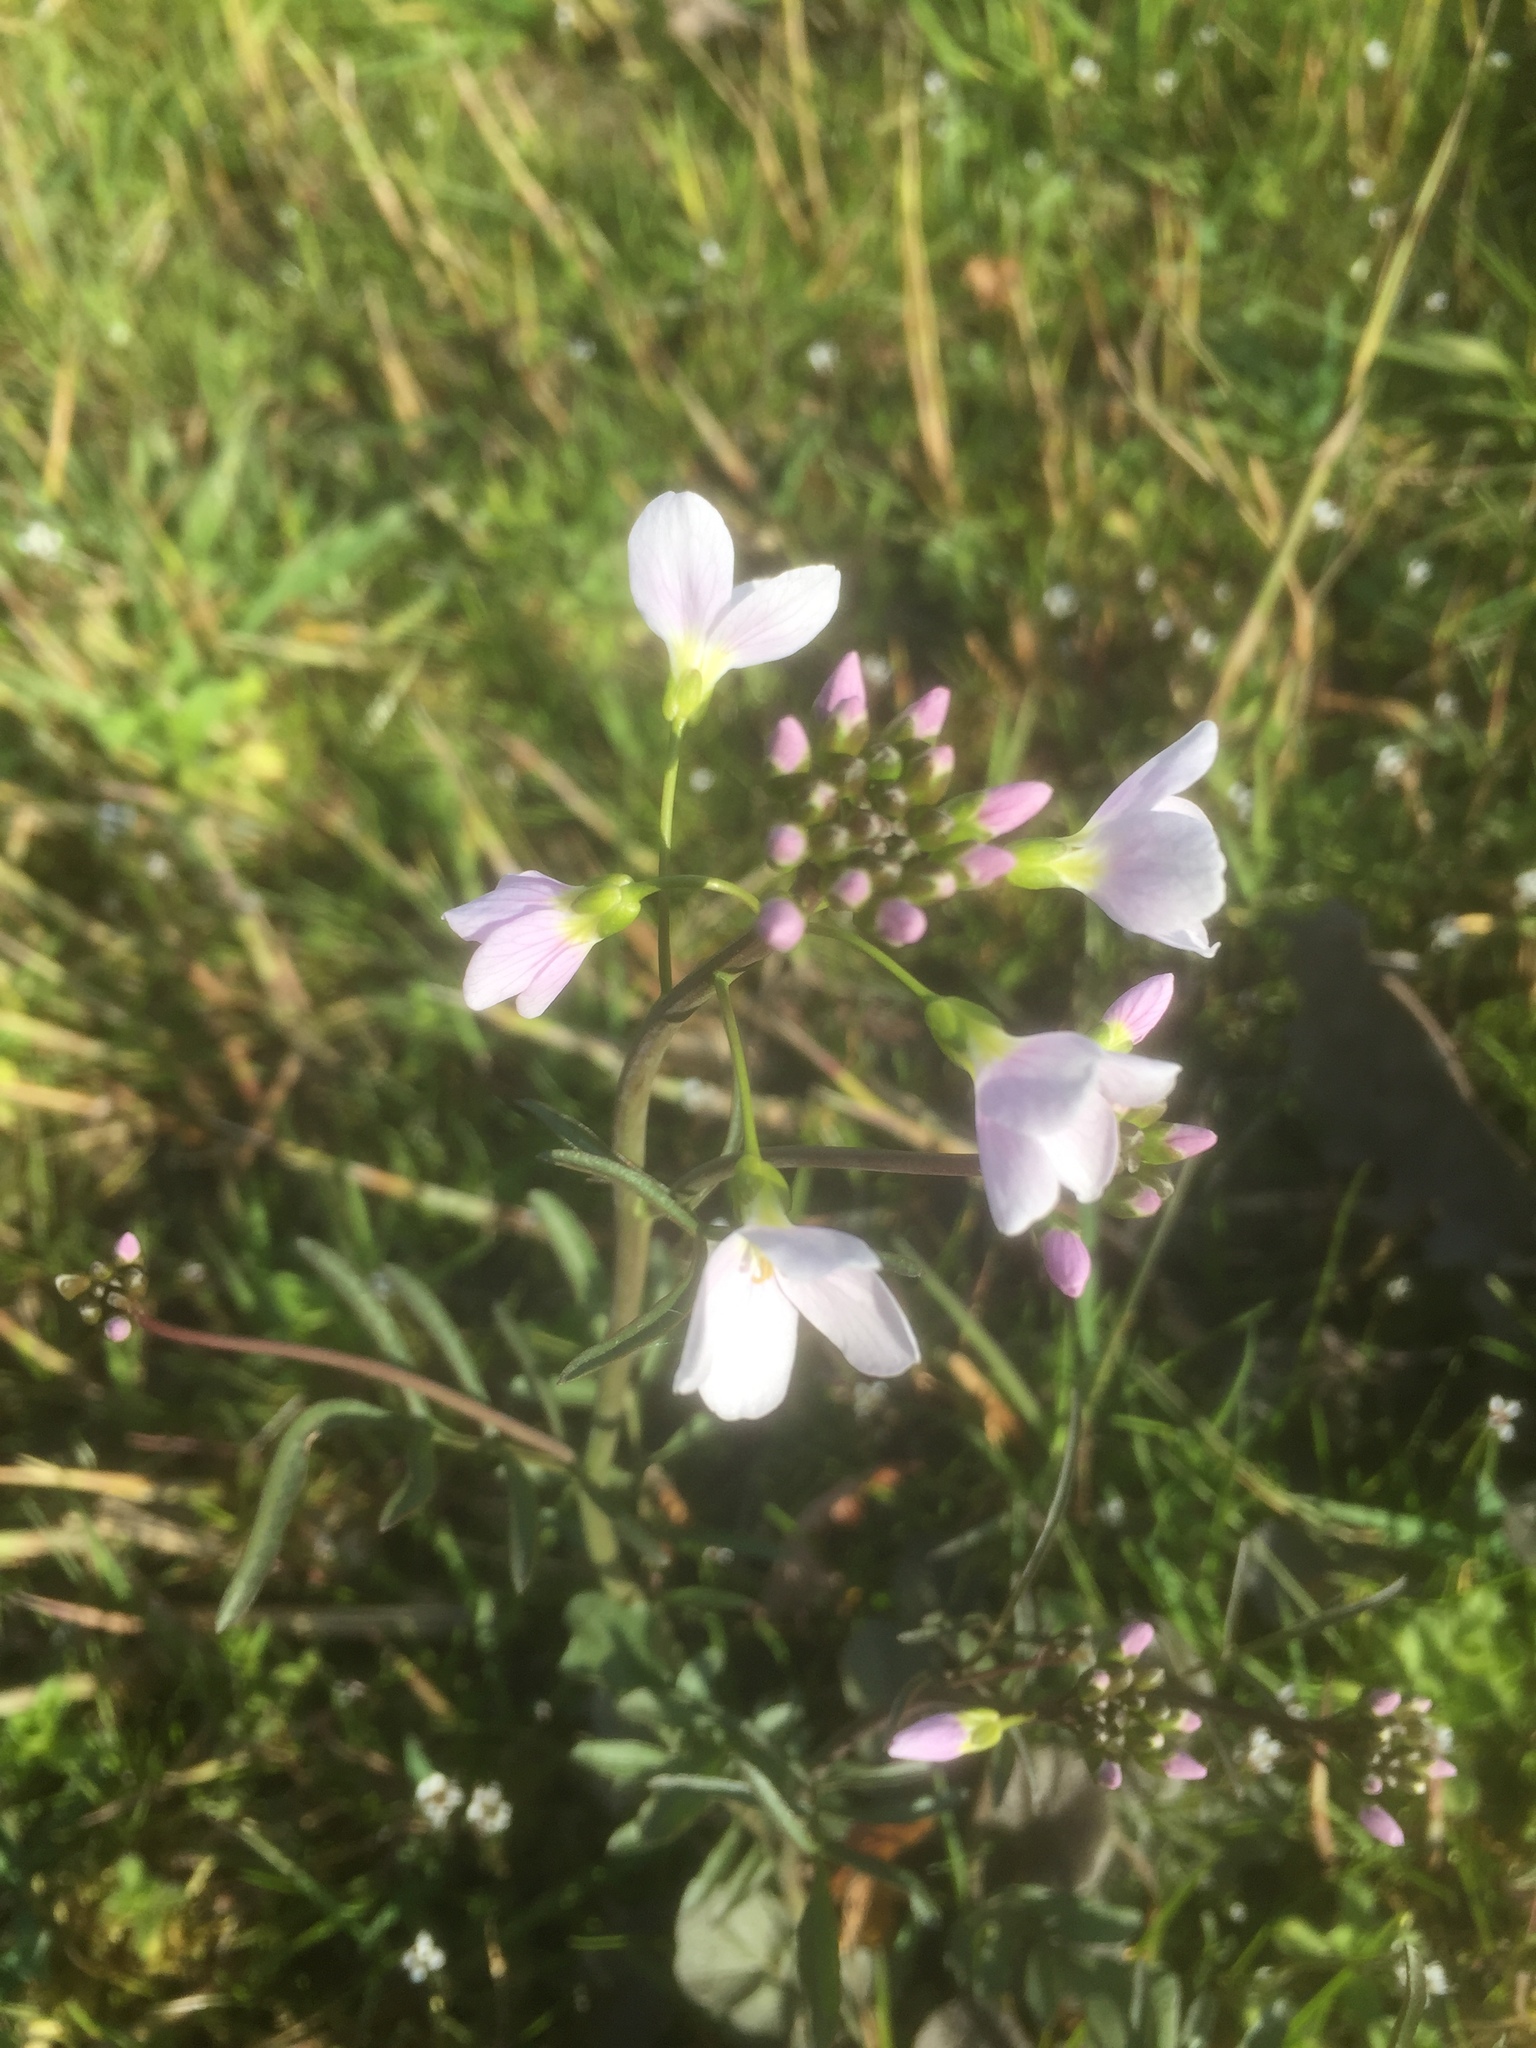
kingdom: Plantae
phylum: Tracheophyta
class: Magnoliopsida
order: Brassicales
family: Brassicaceae
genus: Cardamine
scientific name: Cardamine pratensis
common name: Cuckoo flower
